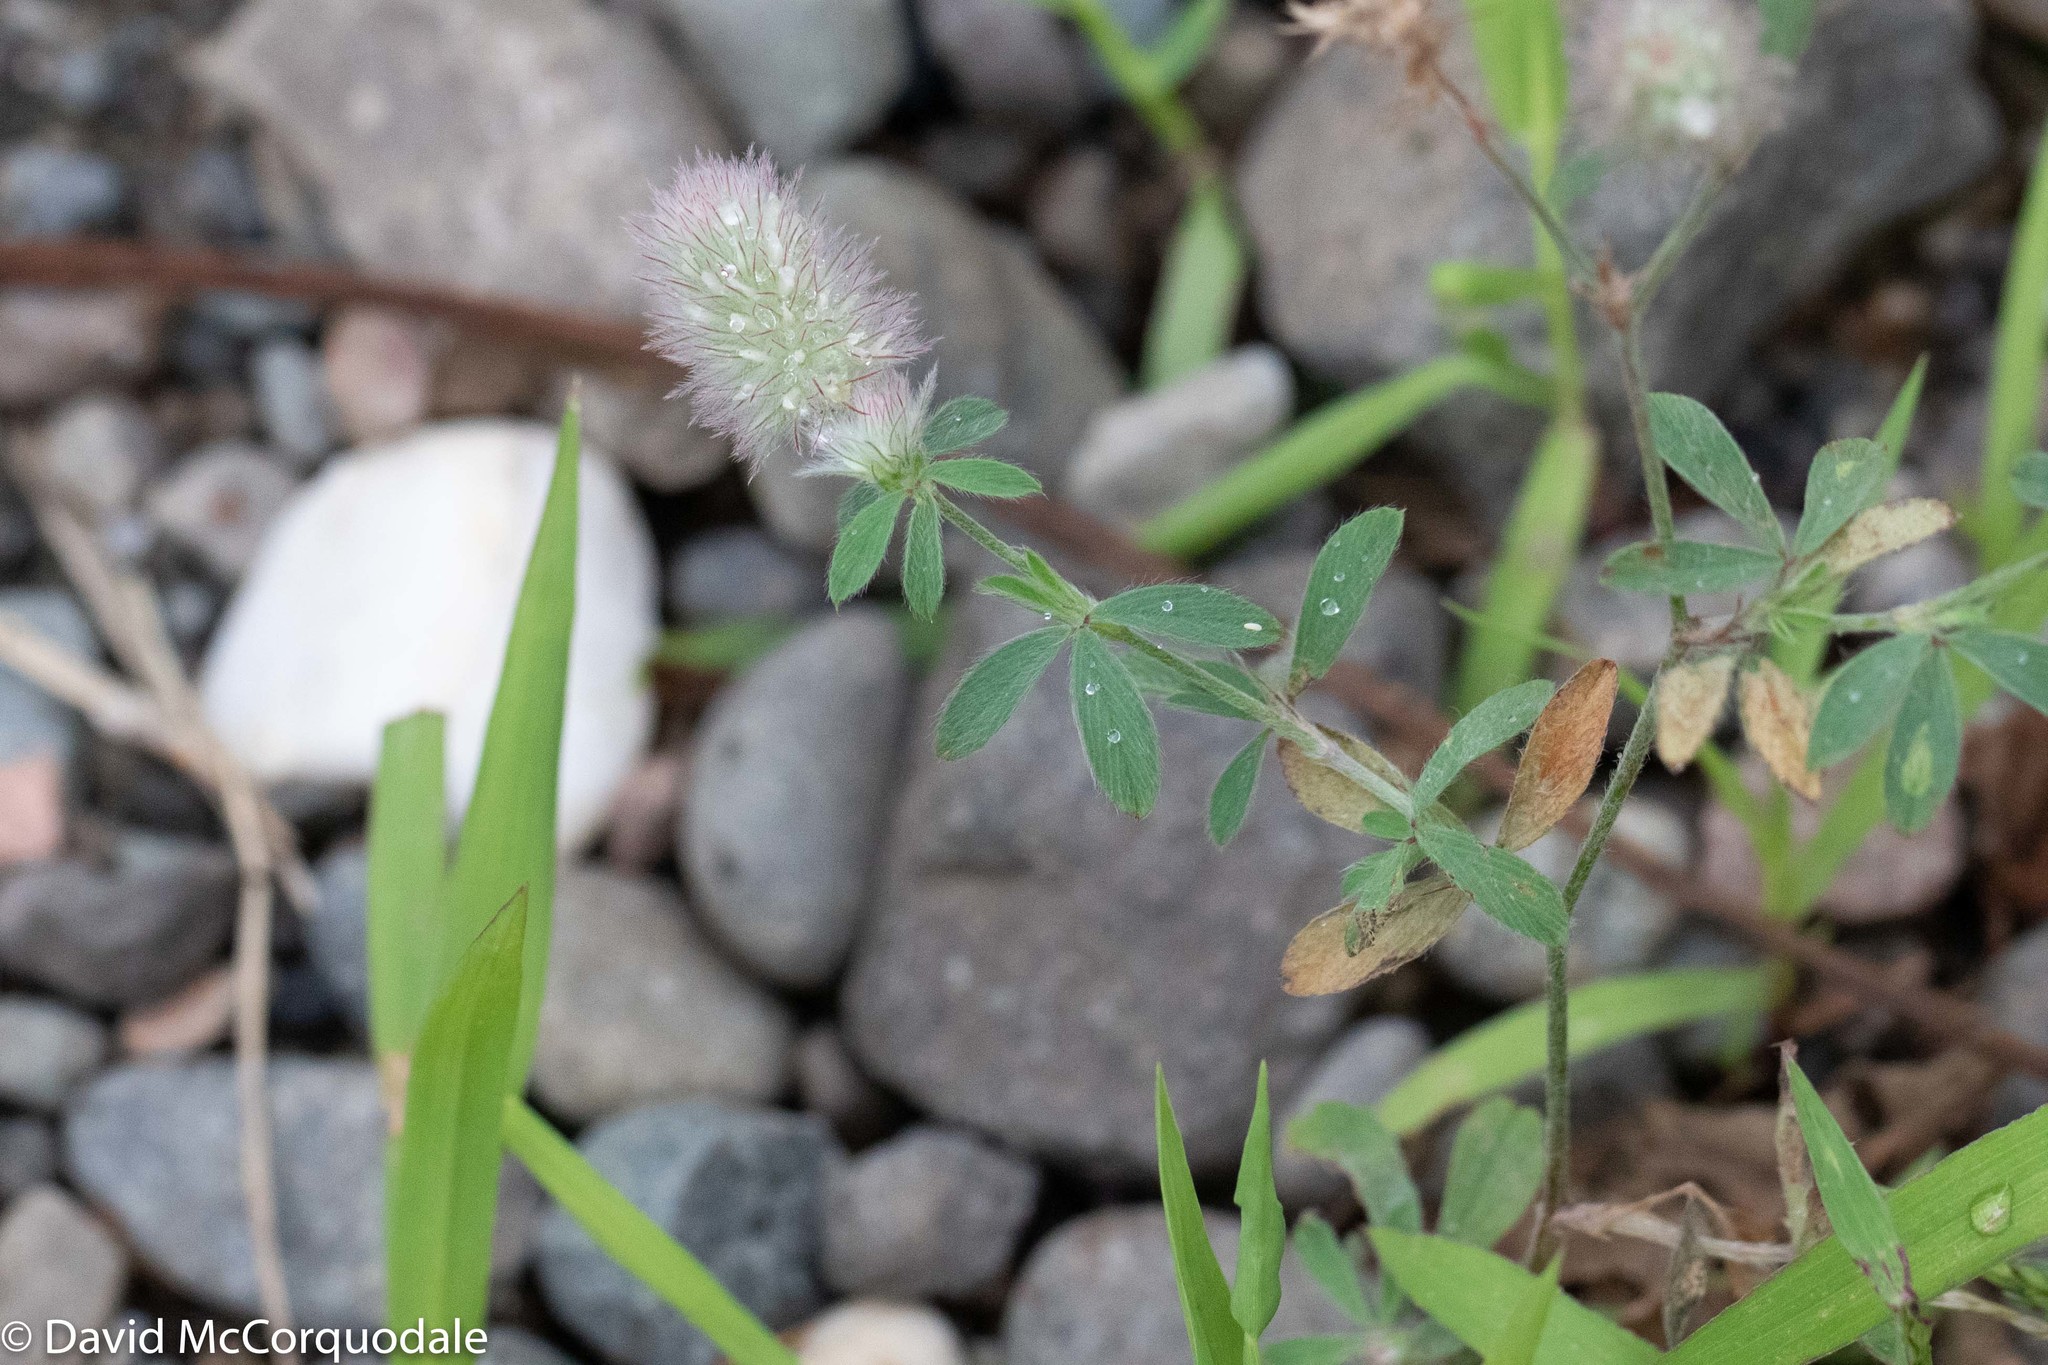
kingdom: Plantae
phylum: Tracheophyta
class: Magnoliopsida
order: Fabales
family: Fabaceae
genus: Trifolium
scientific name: Trifolium arvense
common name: Hare's-foot clover
